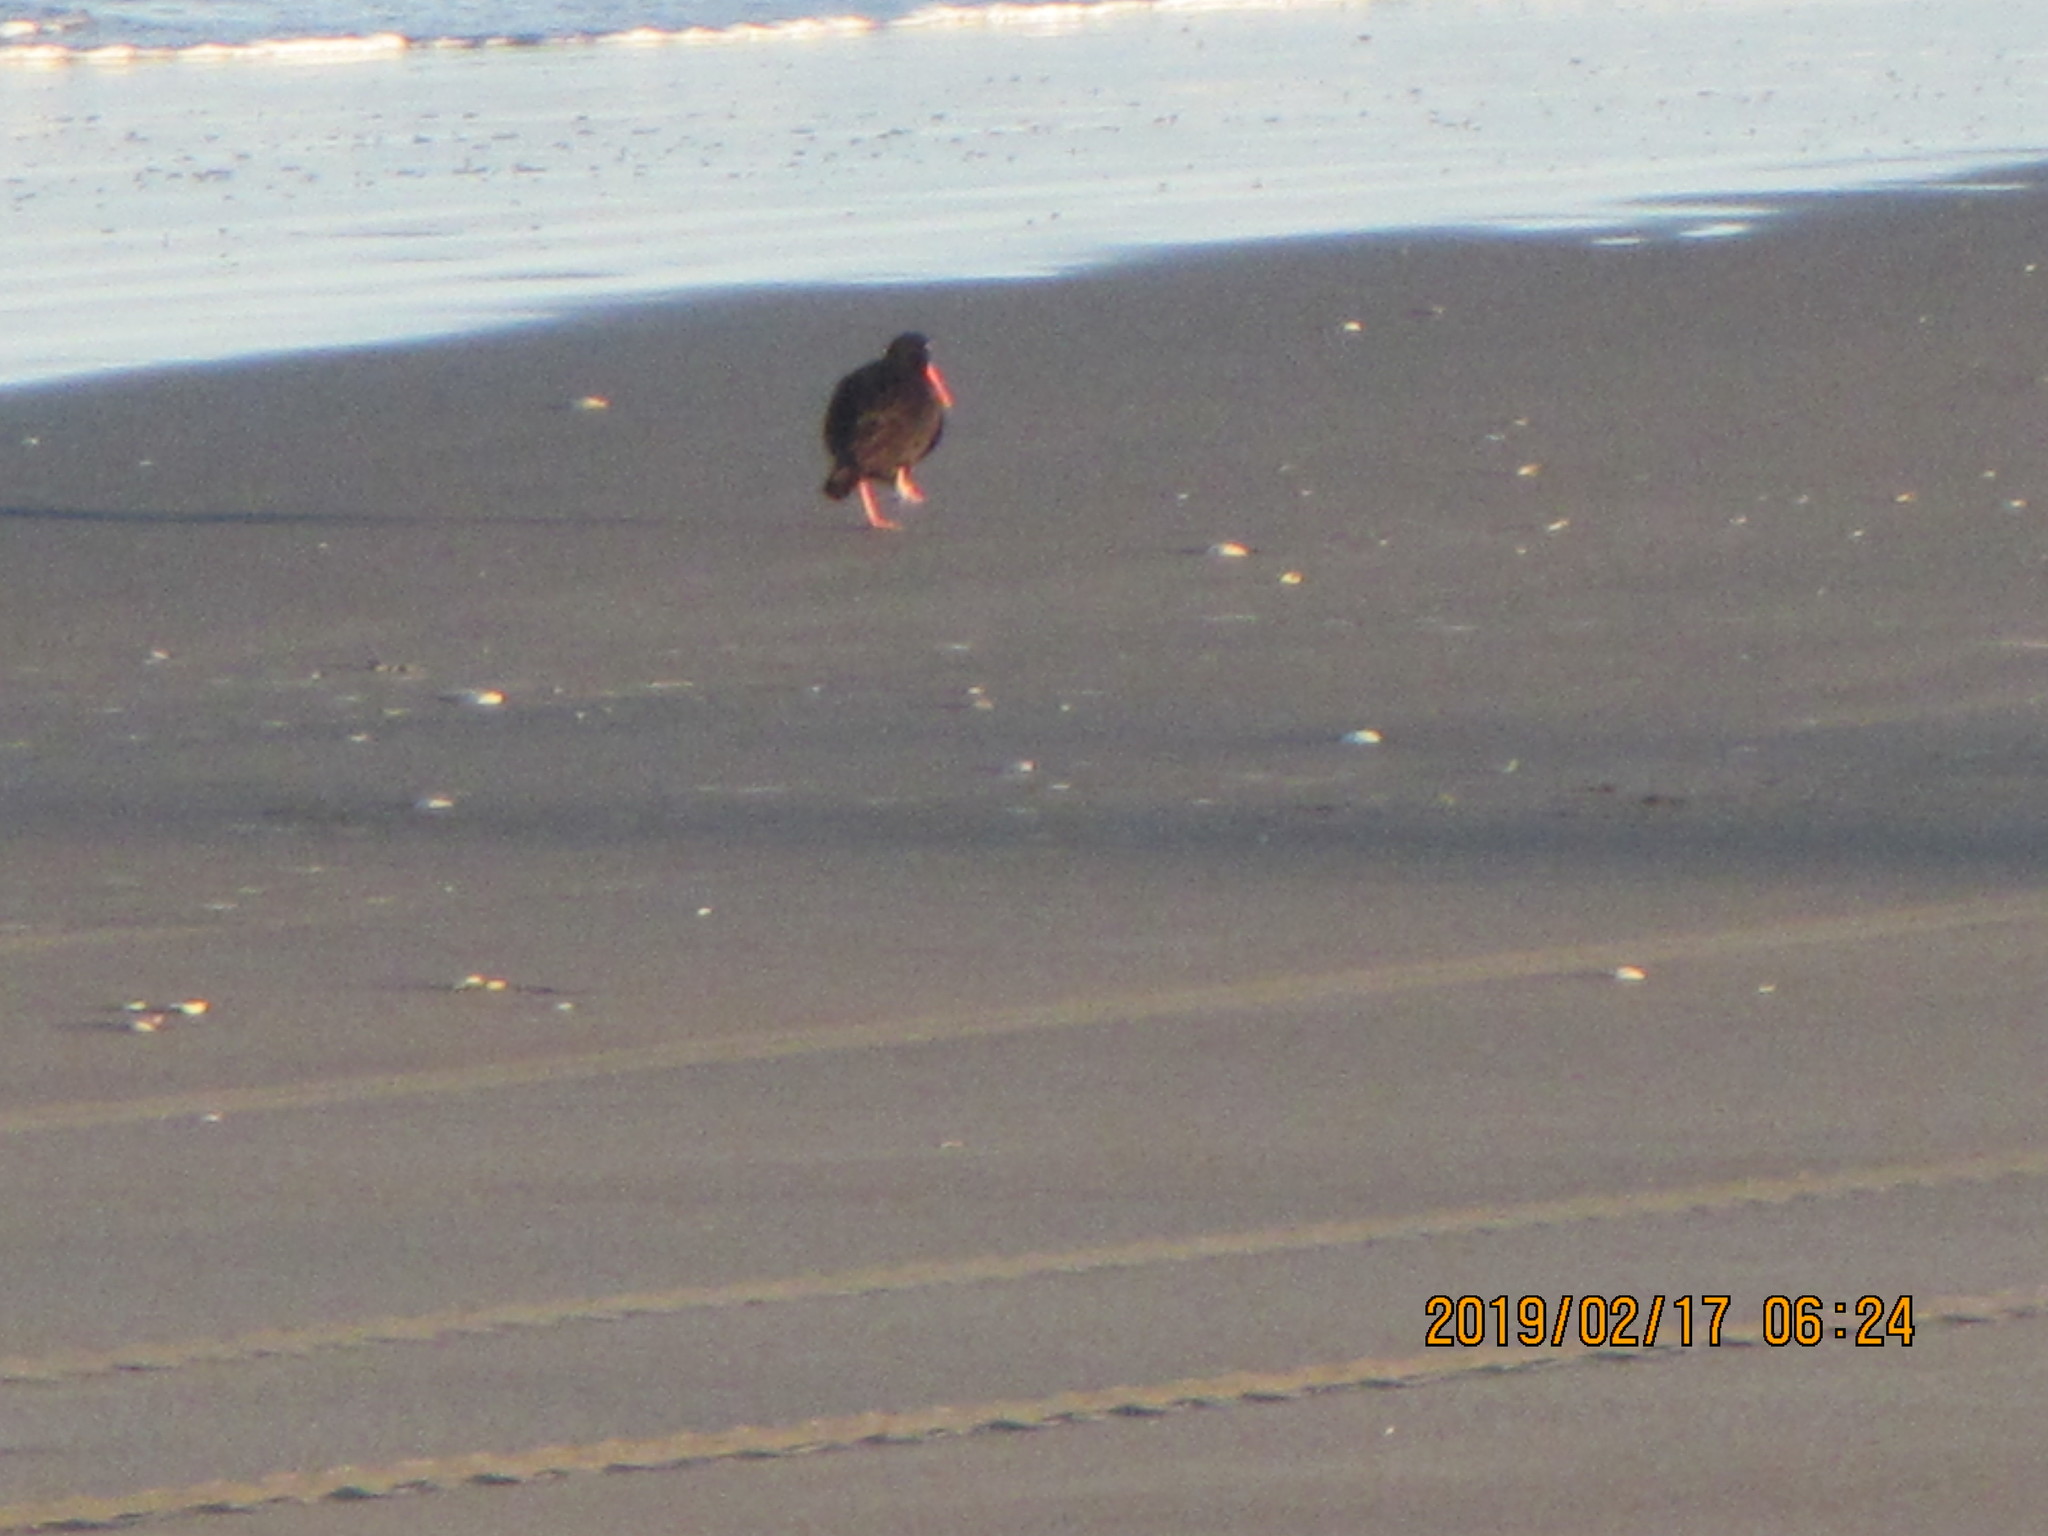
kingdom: Animalia
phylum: Chordata
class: Aves
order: Charadriiformes
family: Haematopodidae
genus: Haematopus
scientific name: Haematopus unicolor
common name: Variable oystercatcher
